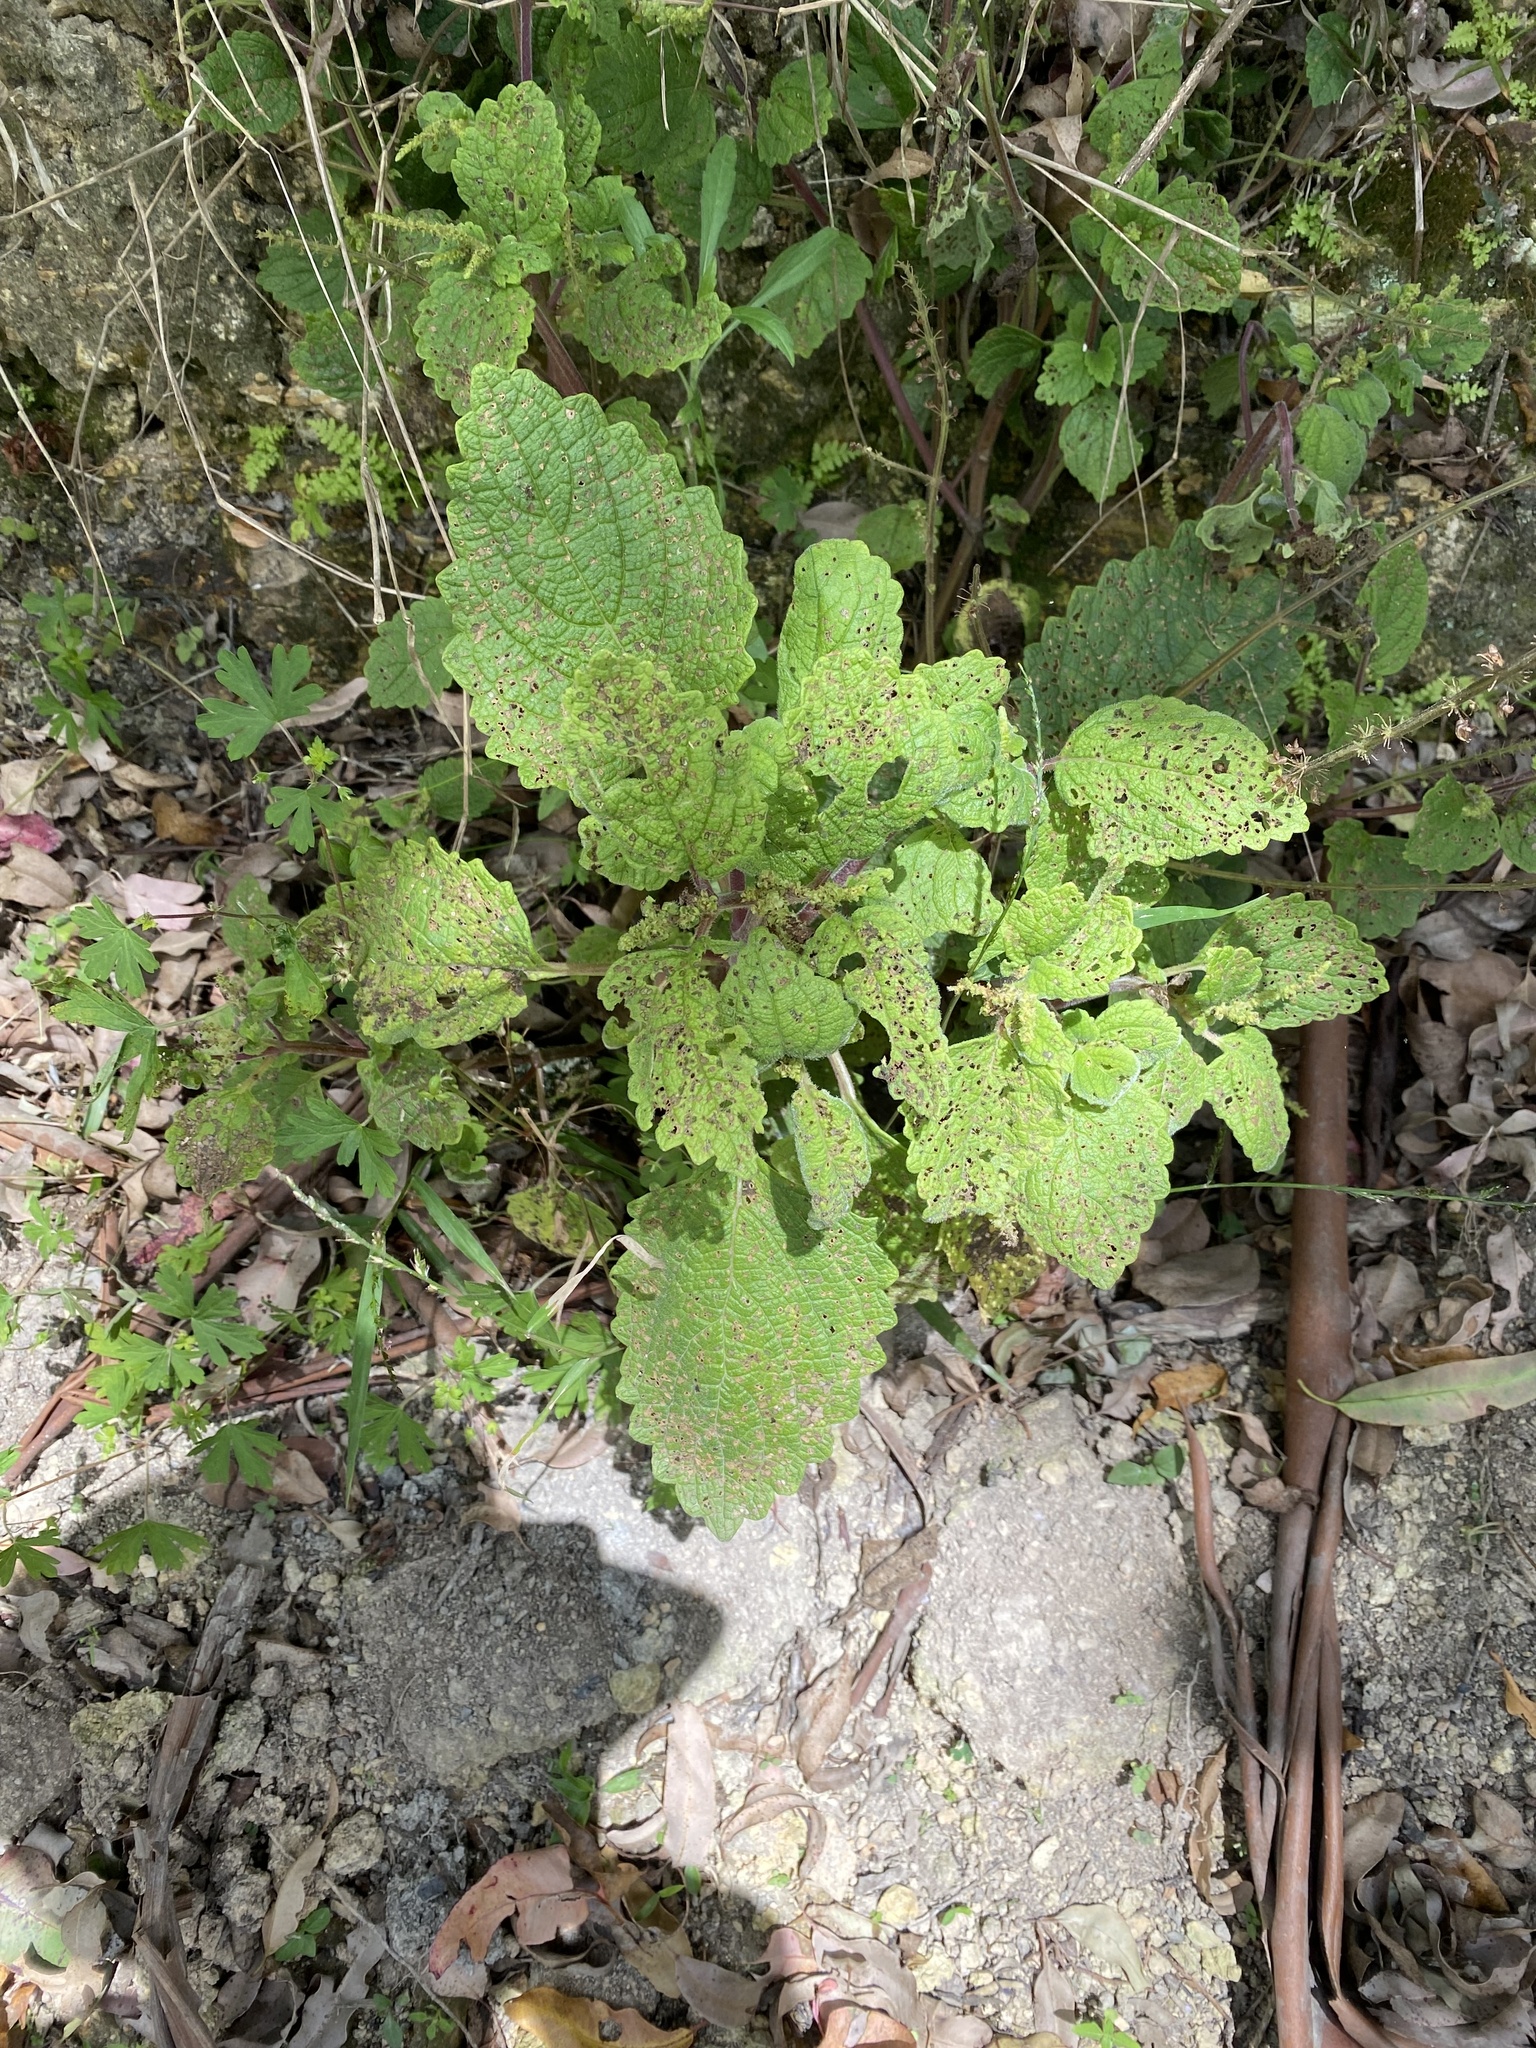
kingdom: Plantae
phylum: Tracheophyta
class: Magnoliopsida
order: Lamiales
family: Lamiaceae
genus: Coleus
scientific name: Coleus australis
